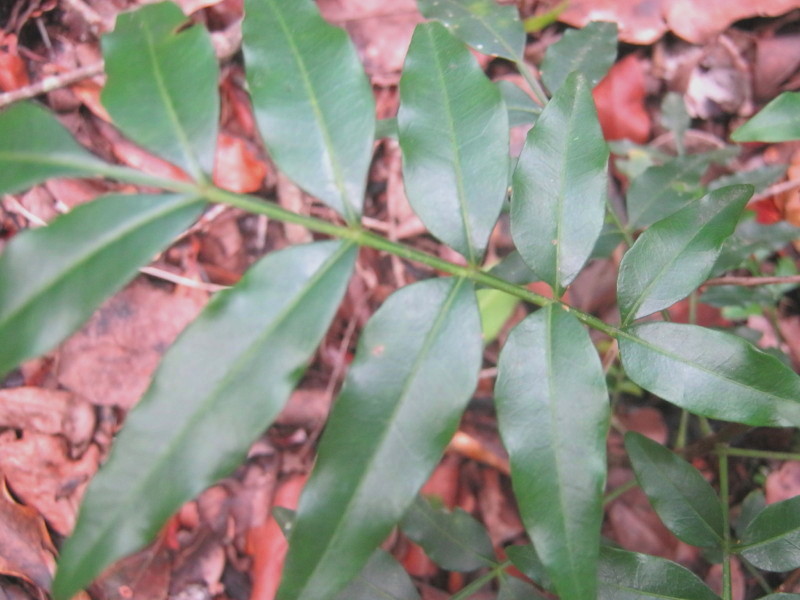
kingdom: Plantae
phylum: Tracheophyta
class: Magnoliopsida
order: Sapindales
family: Meliaceae
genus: Ekebergia
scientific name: Ekebergia capensis
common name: Cape-ash
